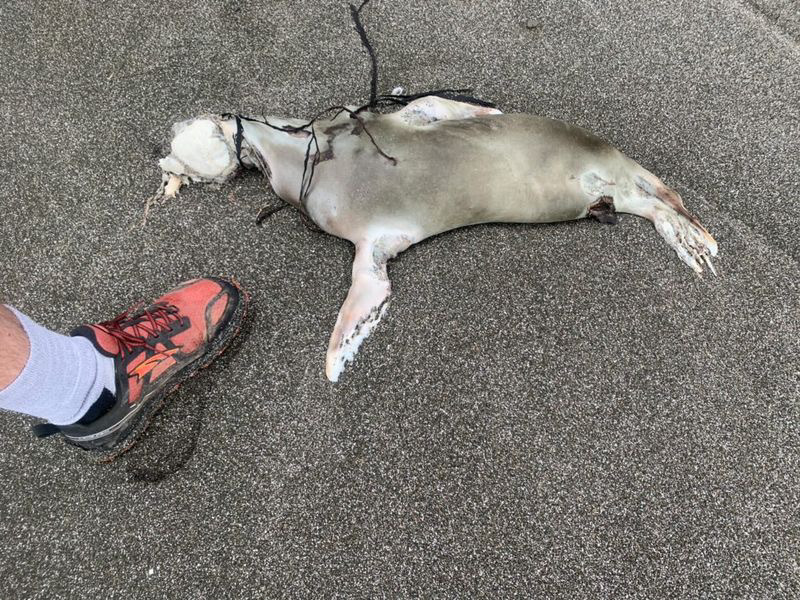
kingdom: Animalia
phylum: Chordata
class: Mammalia
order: Carnivora
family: Otariidae
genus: Arctocephalus
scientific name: Arctocephalus forsteri
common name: New zealand fur seal
